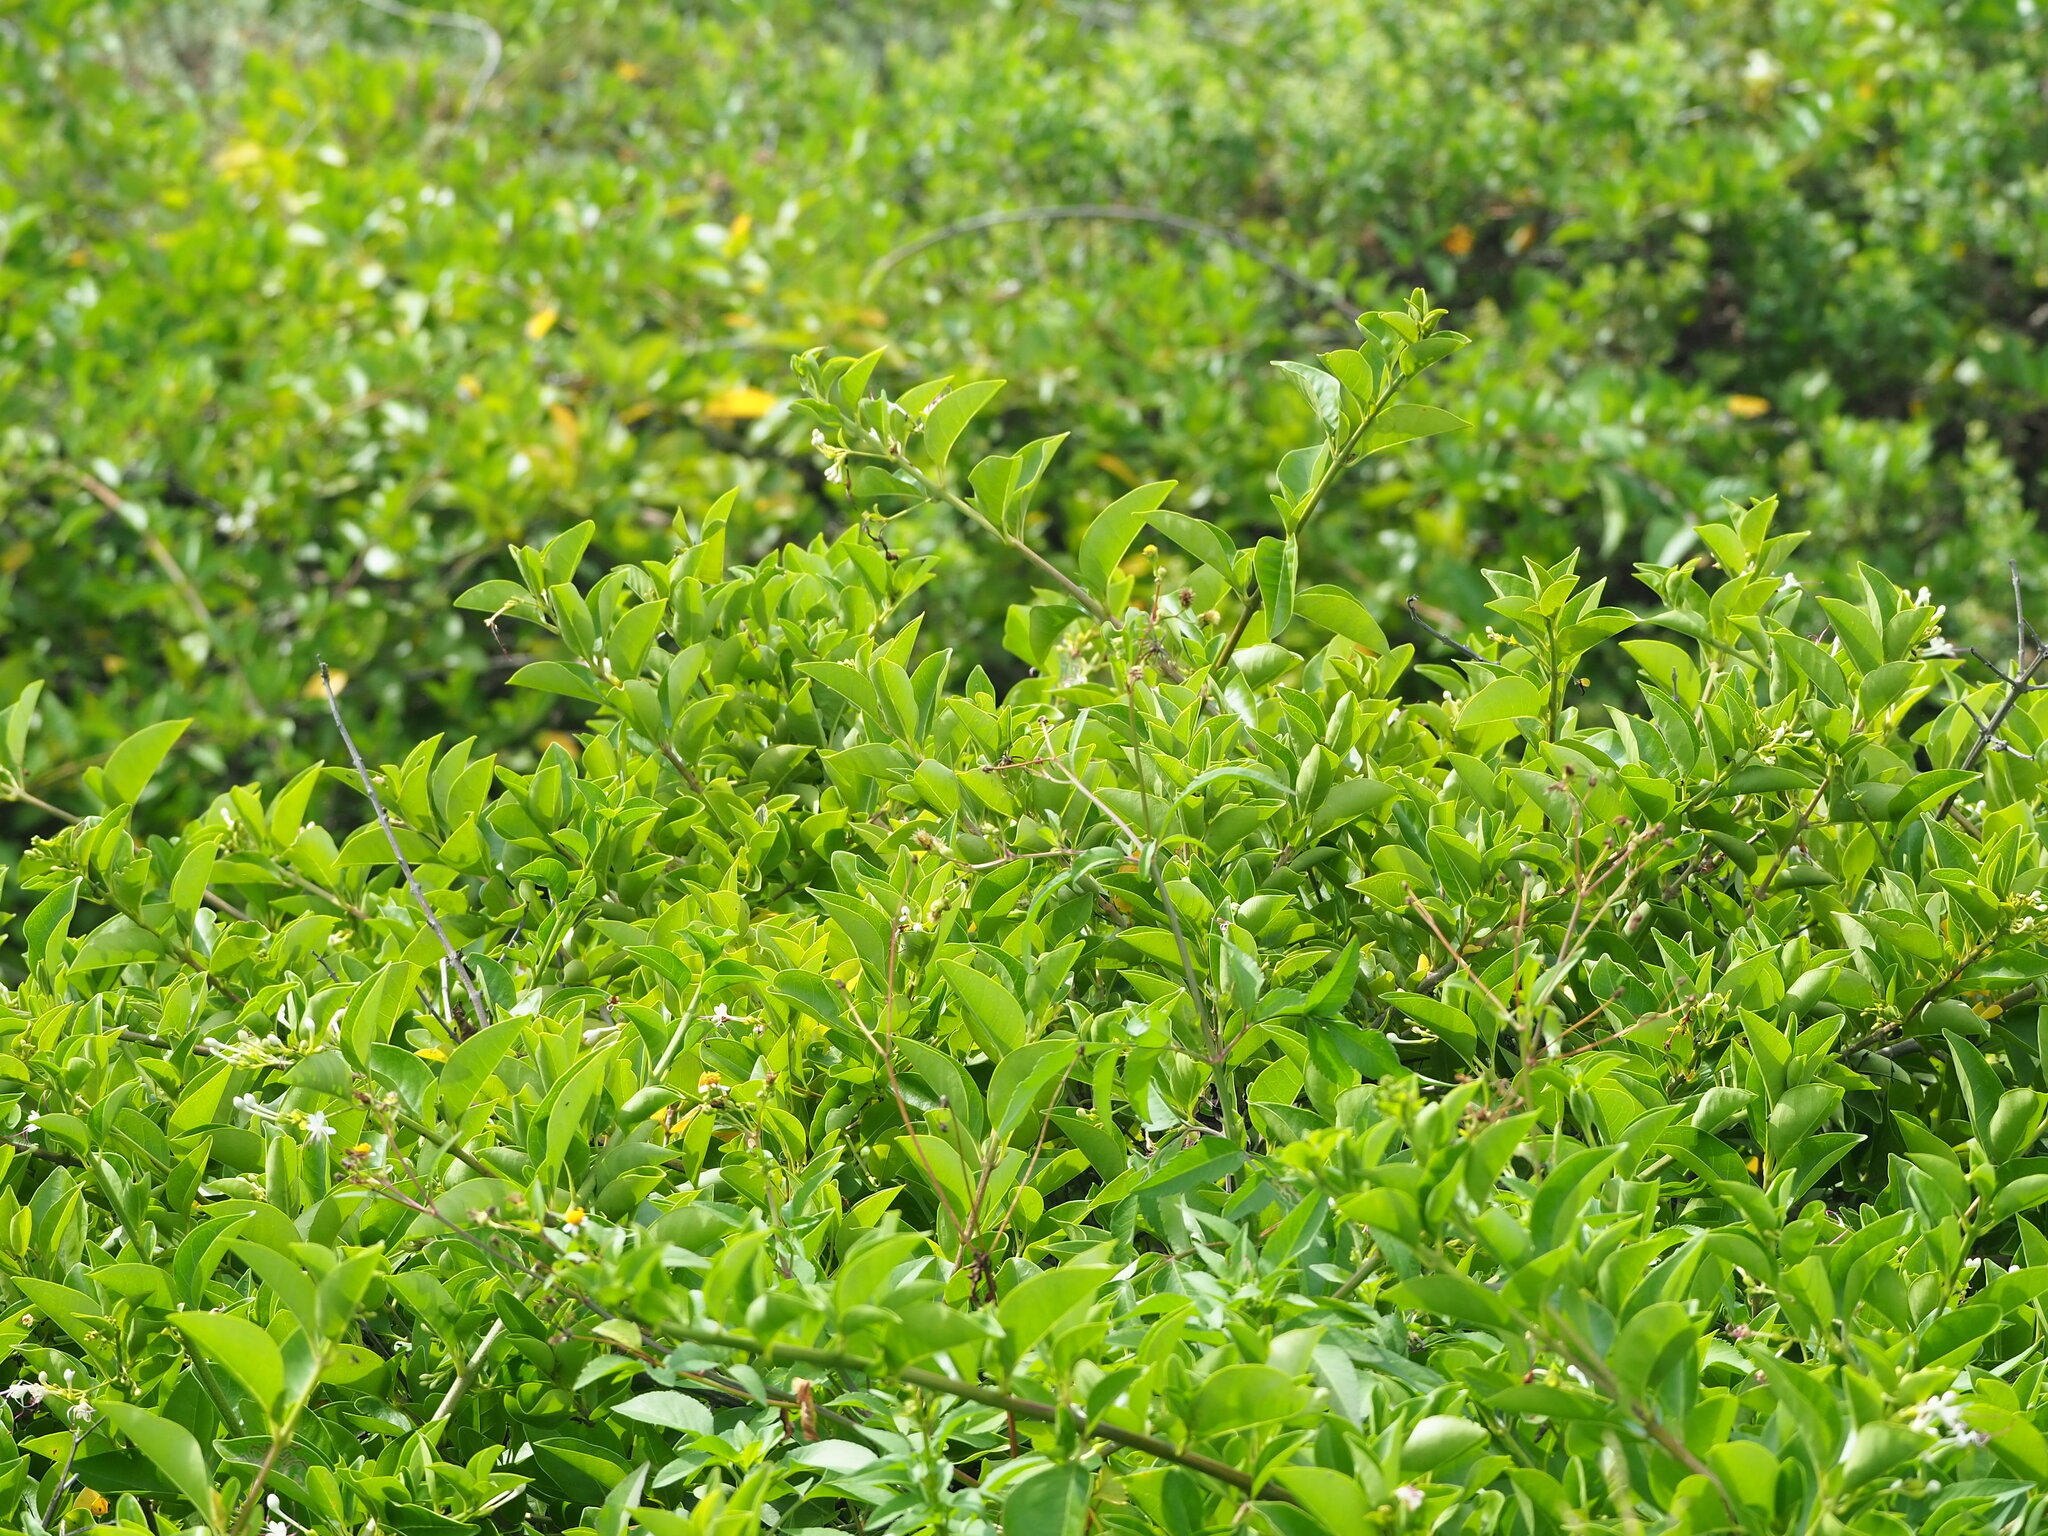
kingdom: Plantae
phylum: Tracheophyta
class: Magnoliopsida
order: Lamiales
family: Lamiaceae
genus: Volkameria
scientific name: Volkameria inermis
